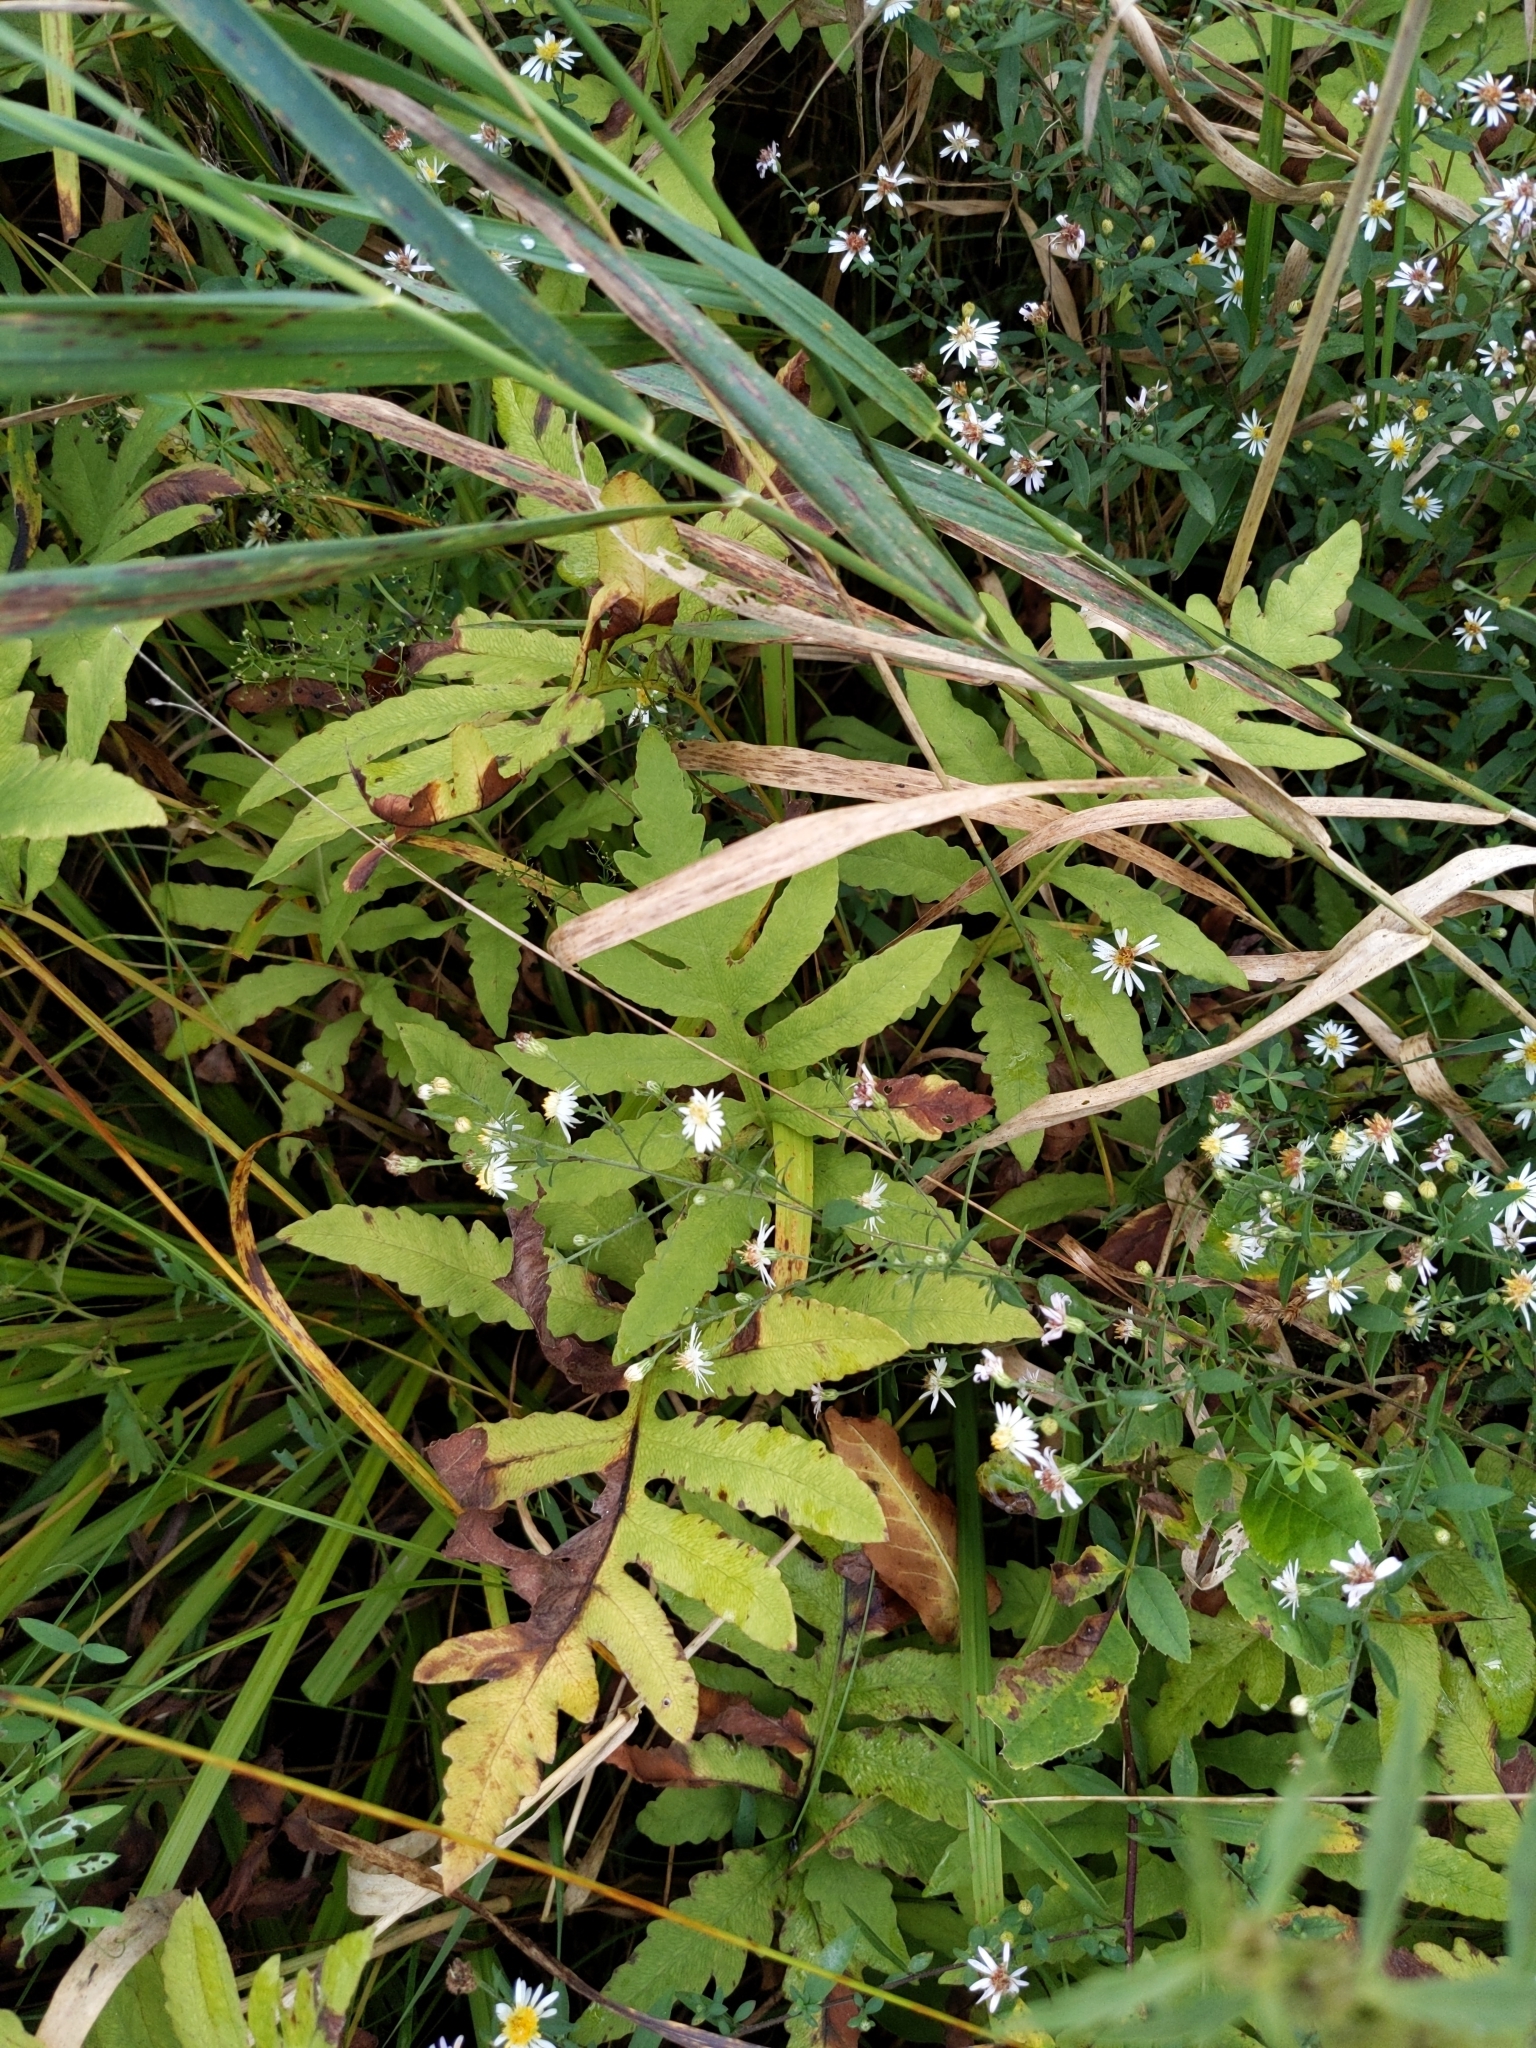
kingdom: Plantae
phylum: Tracheophyta
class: Polypodiopsida
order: Polypodiales
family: Onocleaceae
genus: Onoclea
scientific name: Onoclea sensibilis
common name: Sensitive fern
